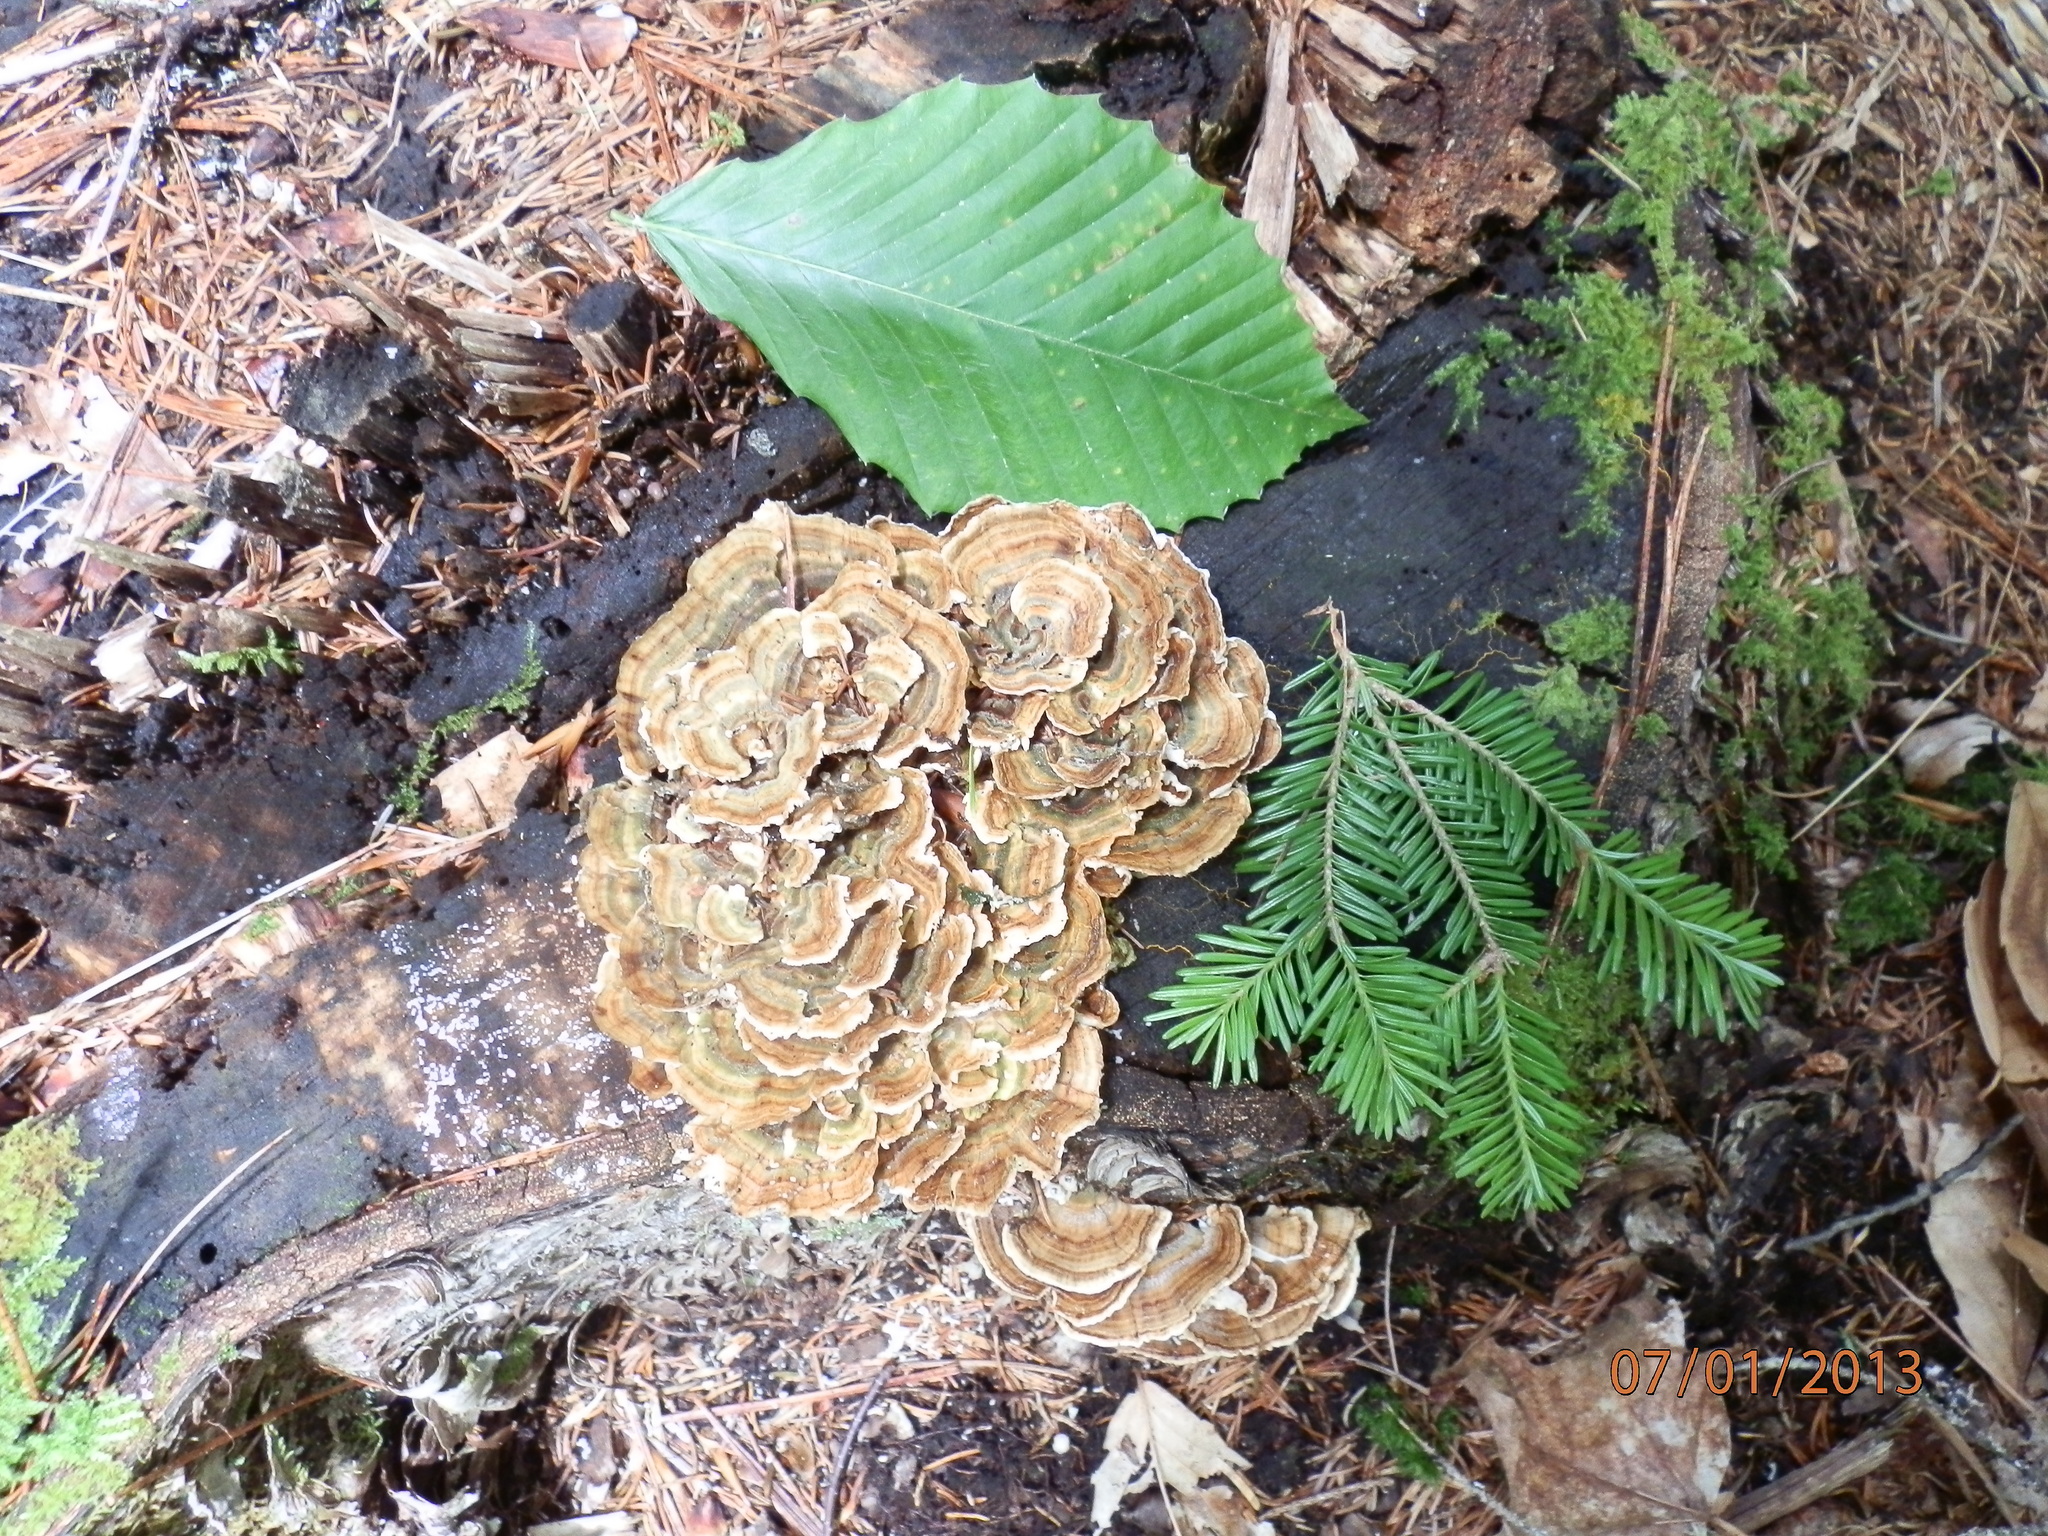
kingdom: Fungi
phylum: Basidiomycota
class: Agaricomycetes
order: Polyporales
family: Polyporaceae
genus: Trametes
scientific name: Trametes versicolor
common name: Turkeytail
